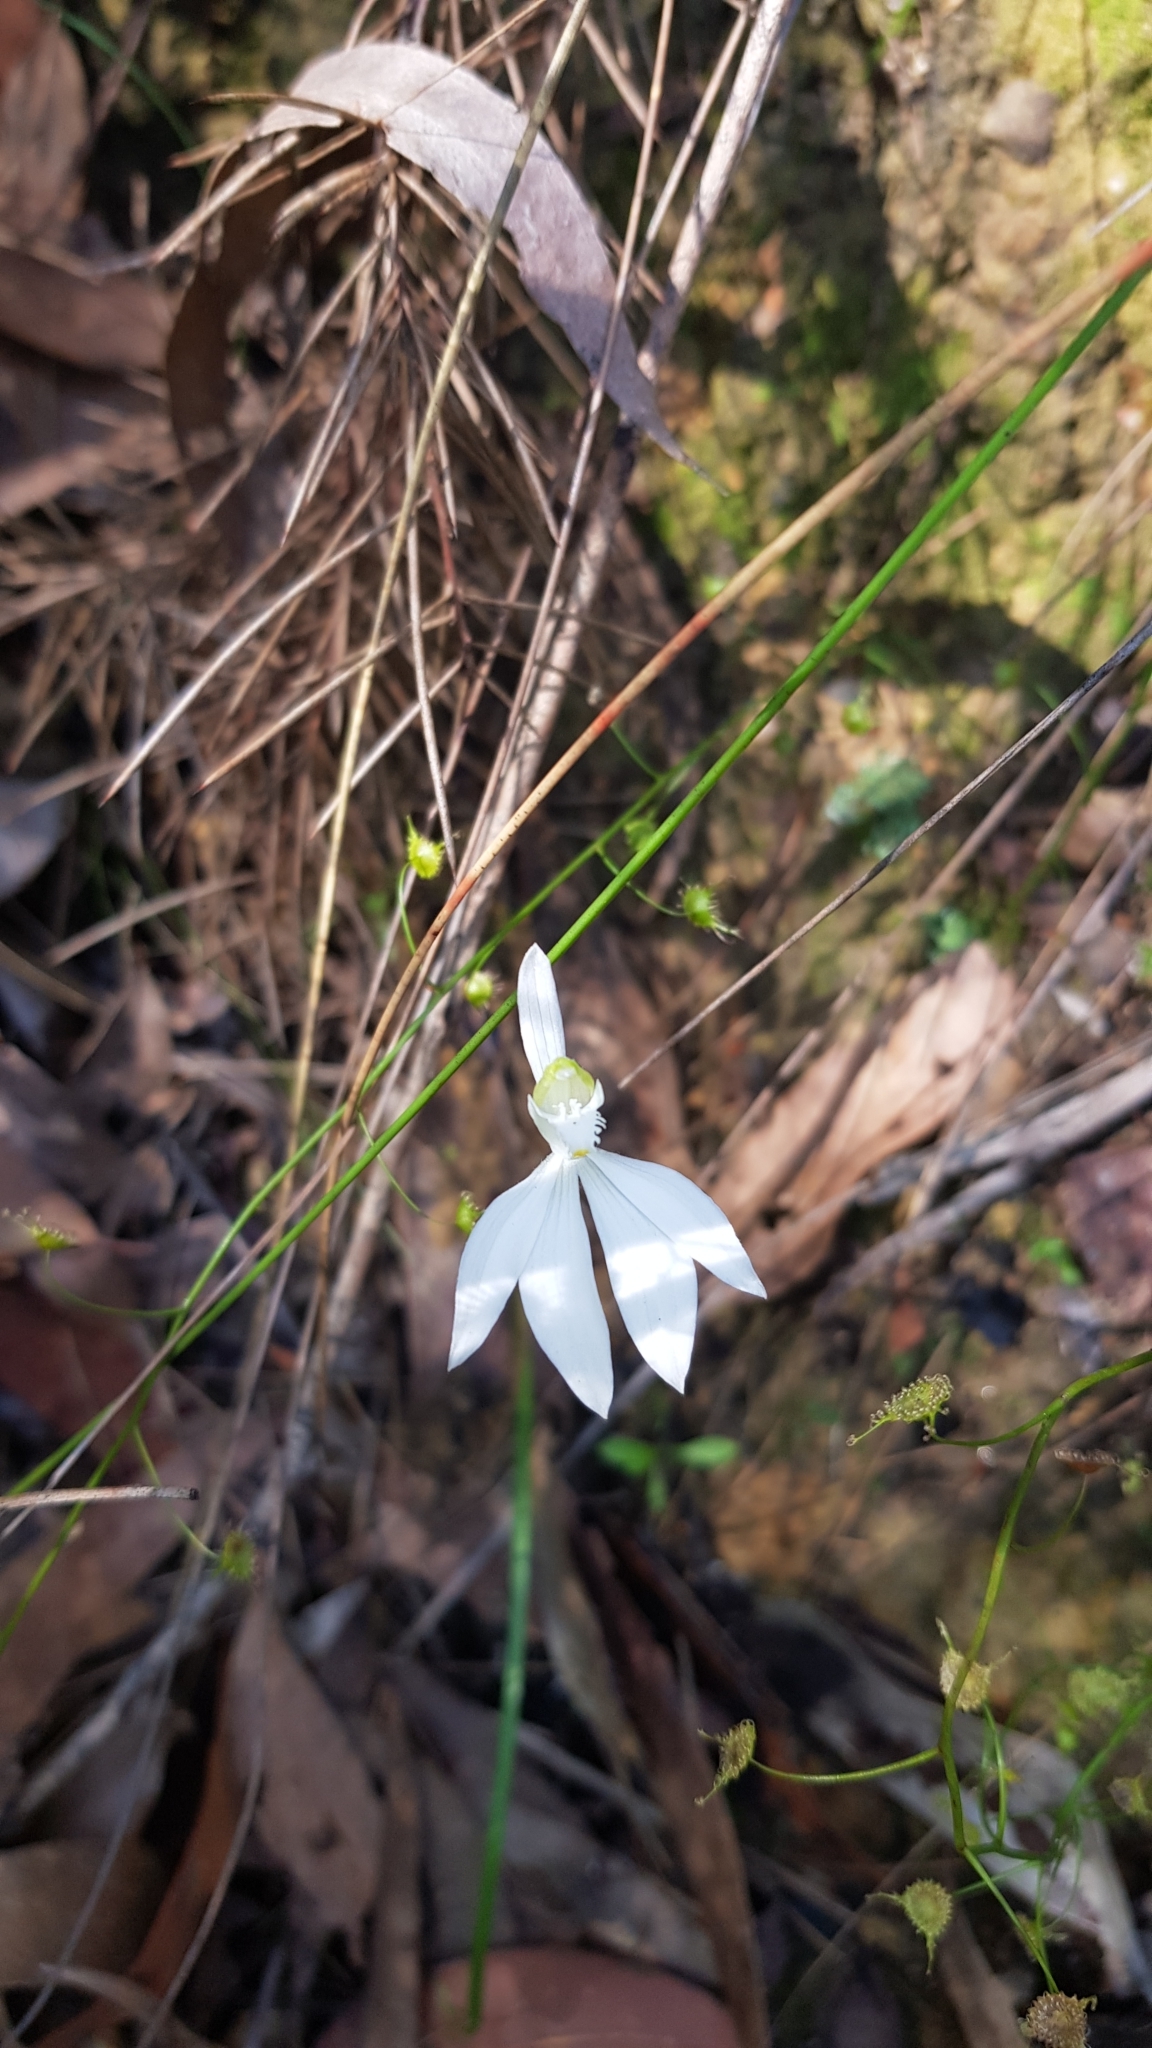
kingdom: Plantae
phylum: Tracheophyta
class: Liliopsida
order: Asparagales
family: Orchidaceae
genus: Caladenia
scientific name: Caladenia catenata
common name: White caladenia
